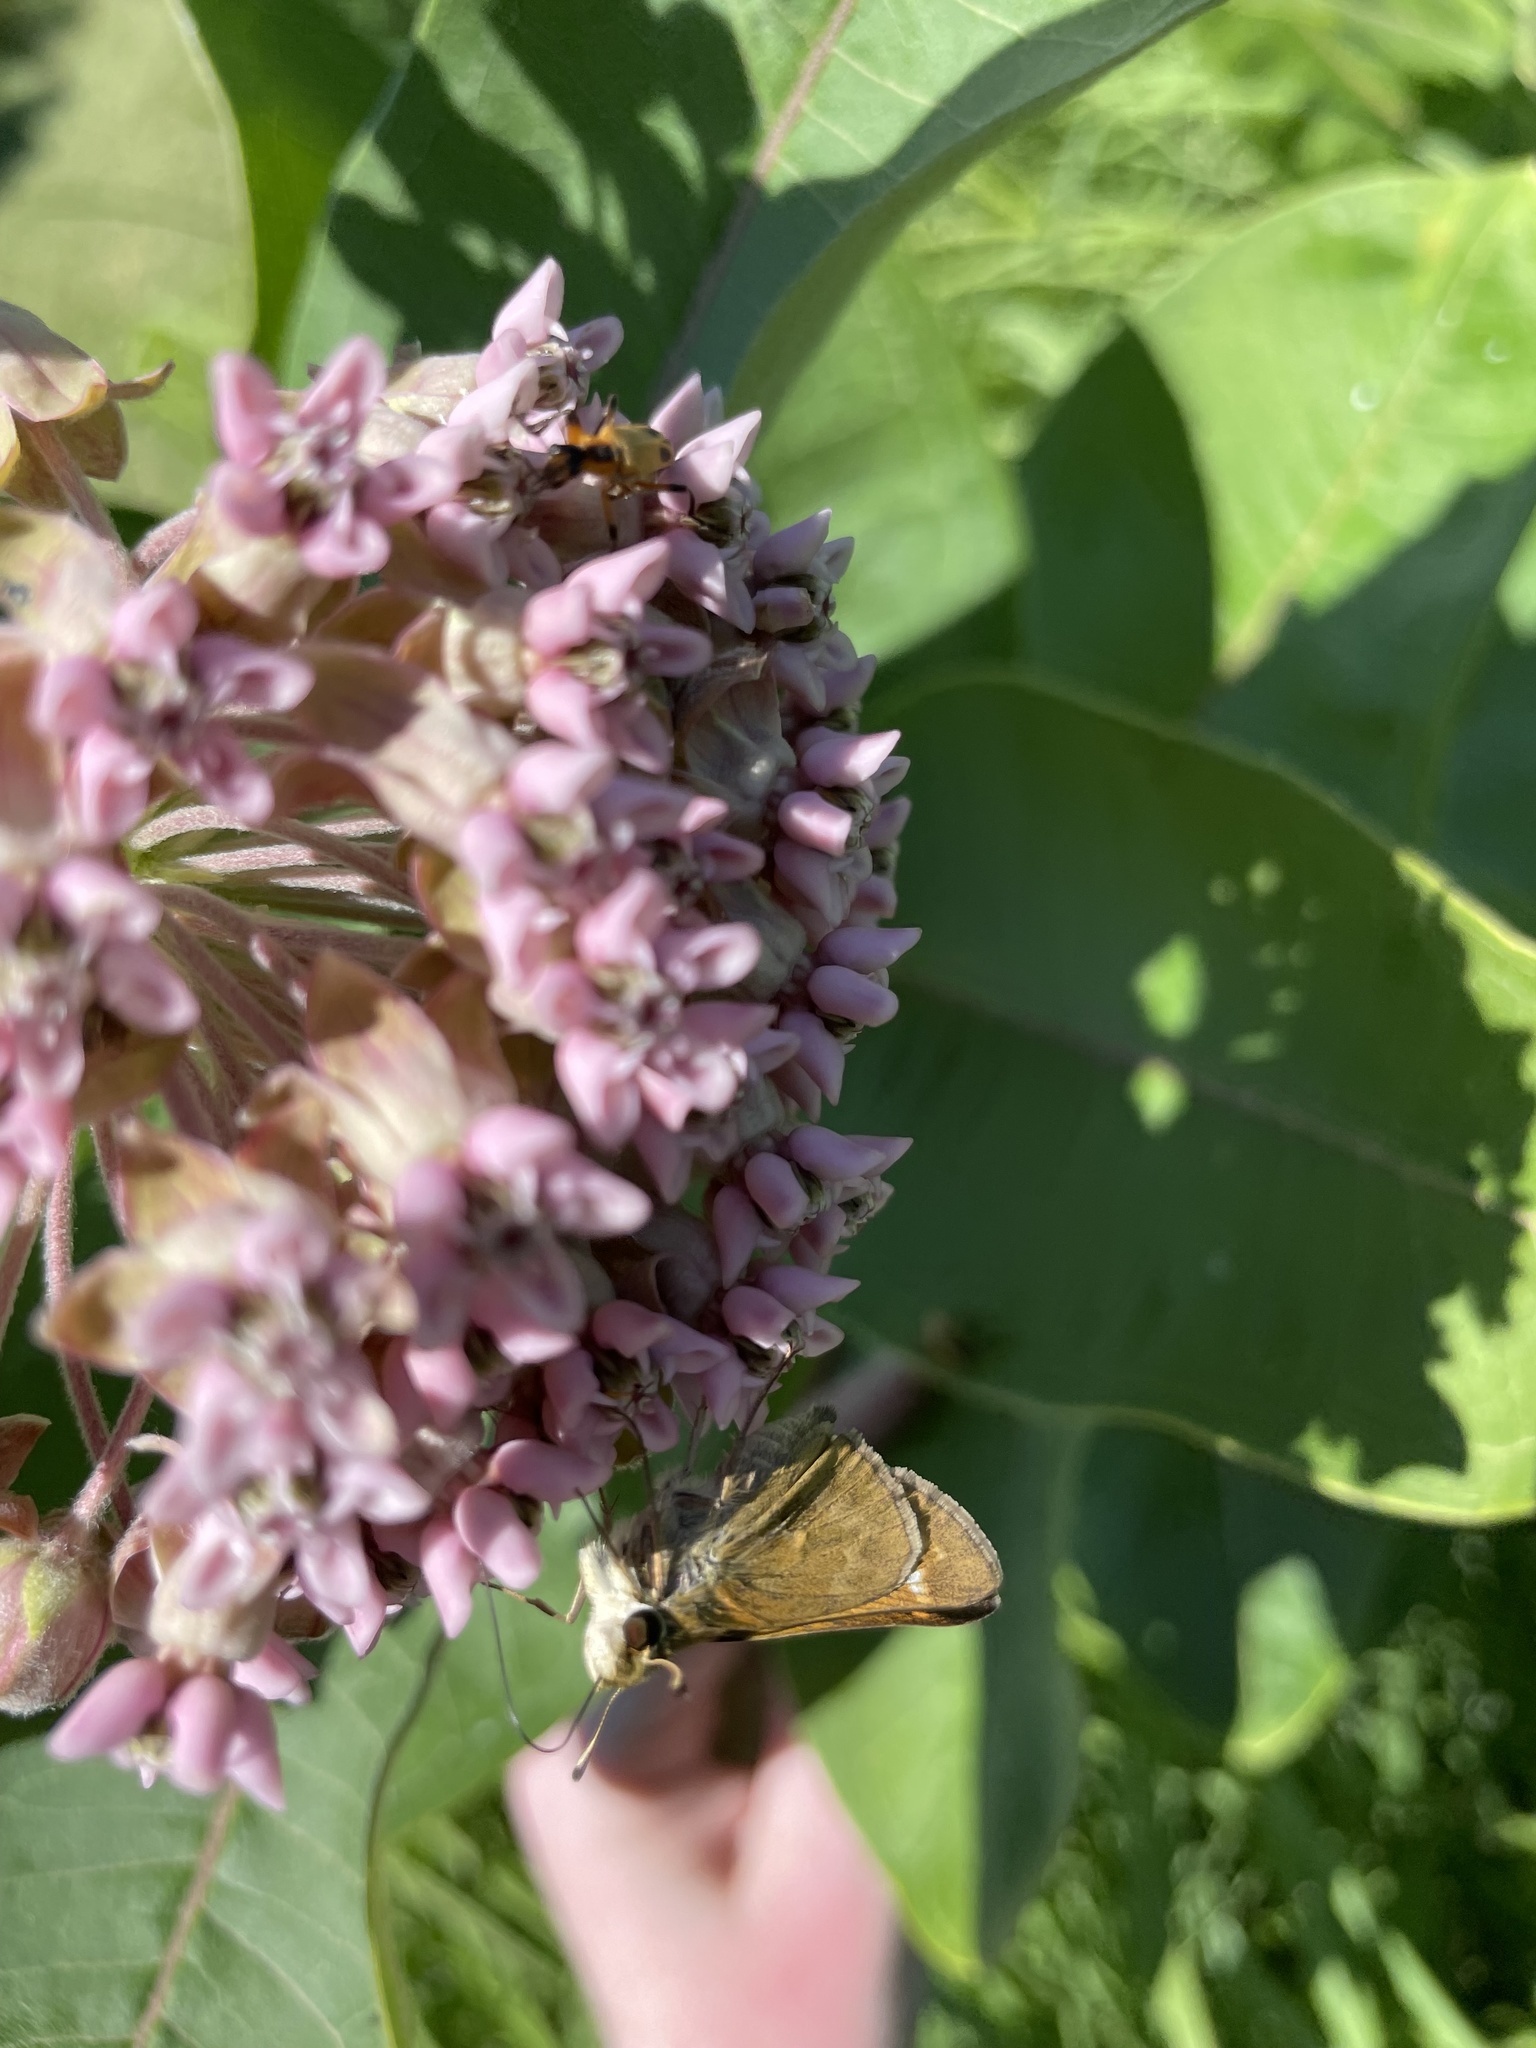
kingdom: Animalia
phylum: Arthropoda
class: Insecta
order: Lepidoptera
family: Hesperiidae
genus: Atalopedes
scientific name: Atalopedes
